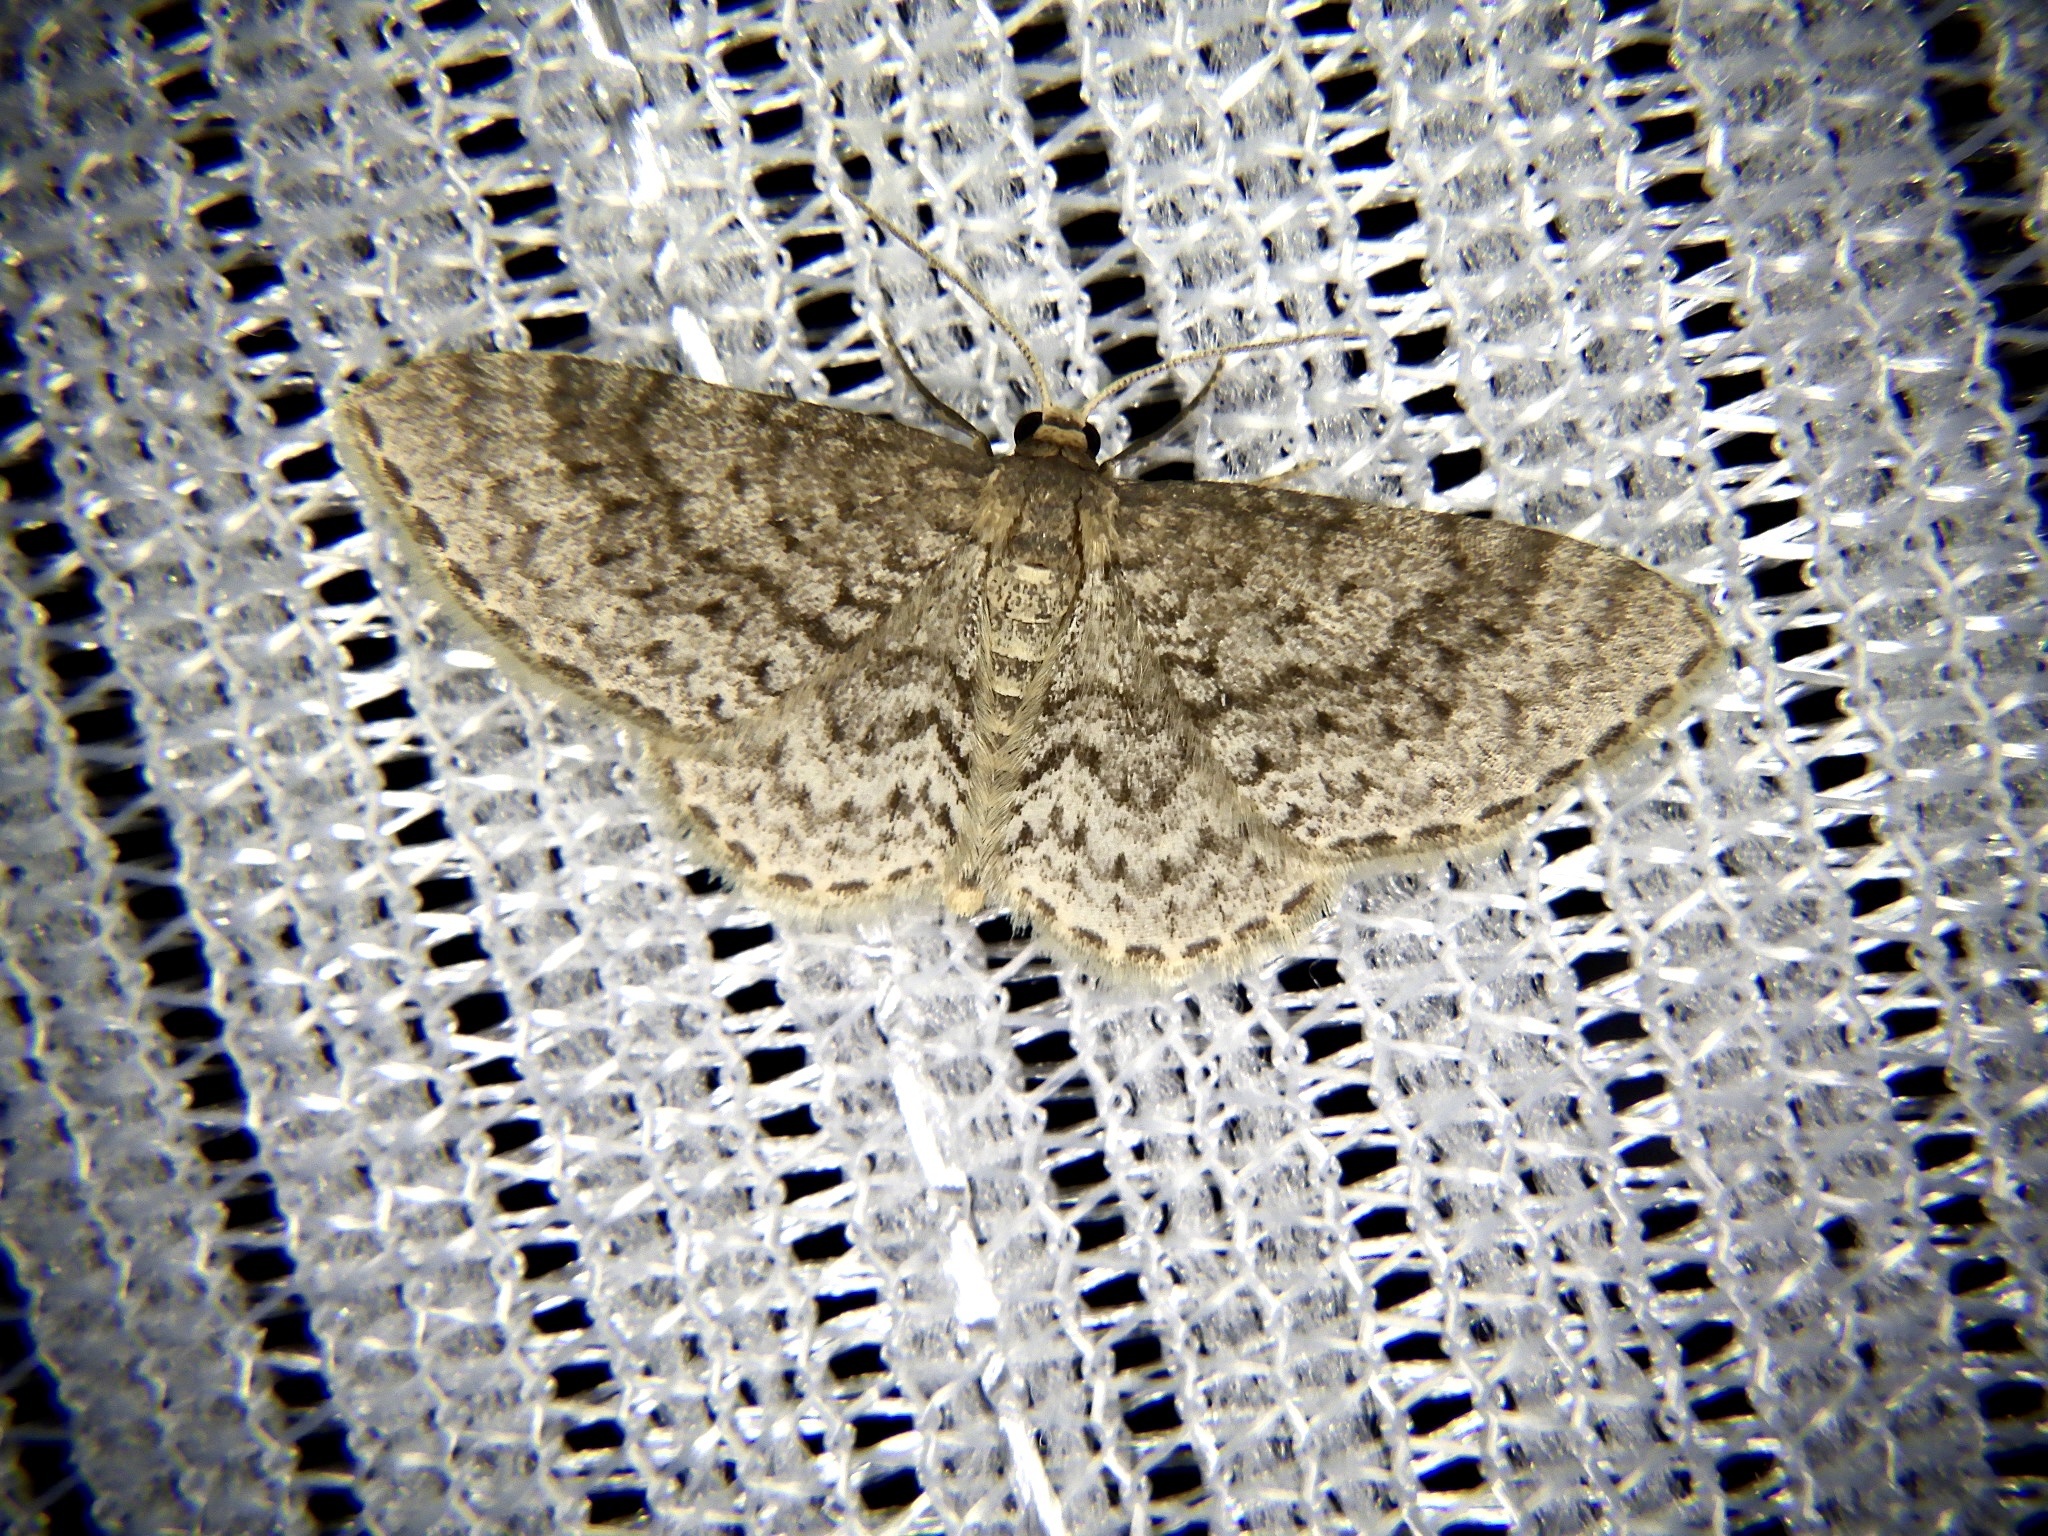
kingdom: Animalia
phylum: Arthropoda
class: Insecta
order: Lepidoptera
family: Geometridae
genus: Hydrelia
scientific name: Hydrelia nisaria
